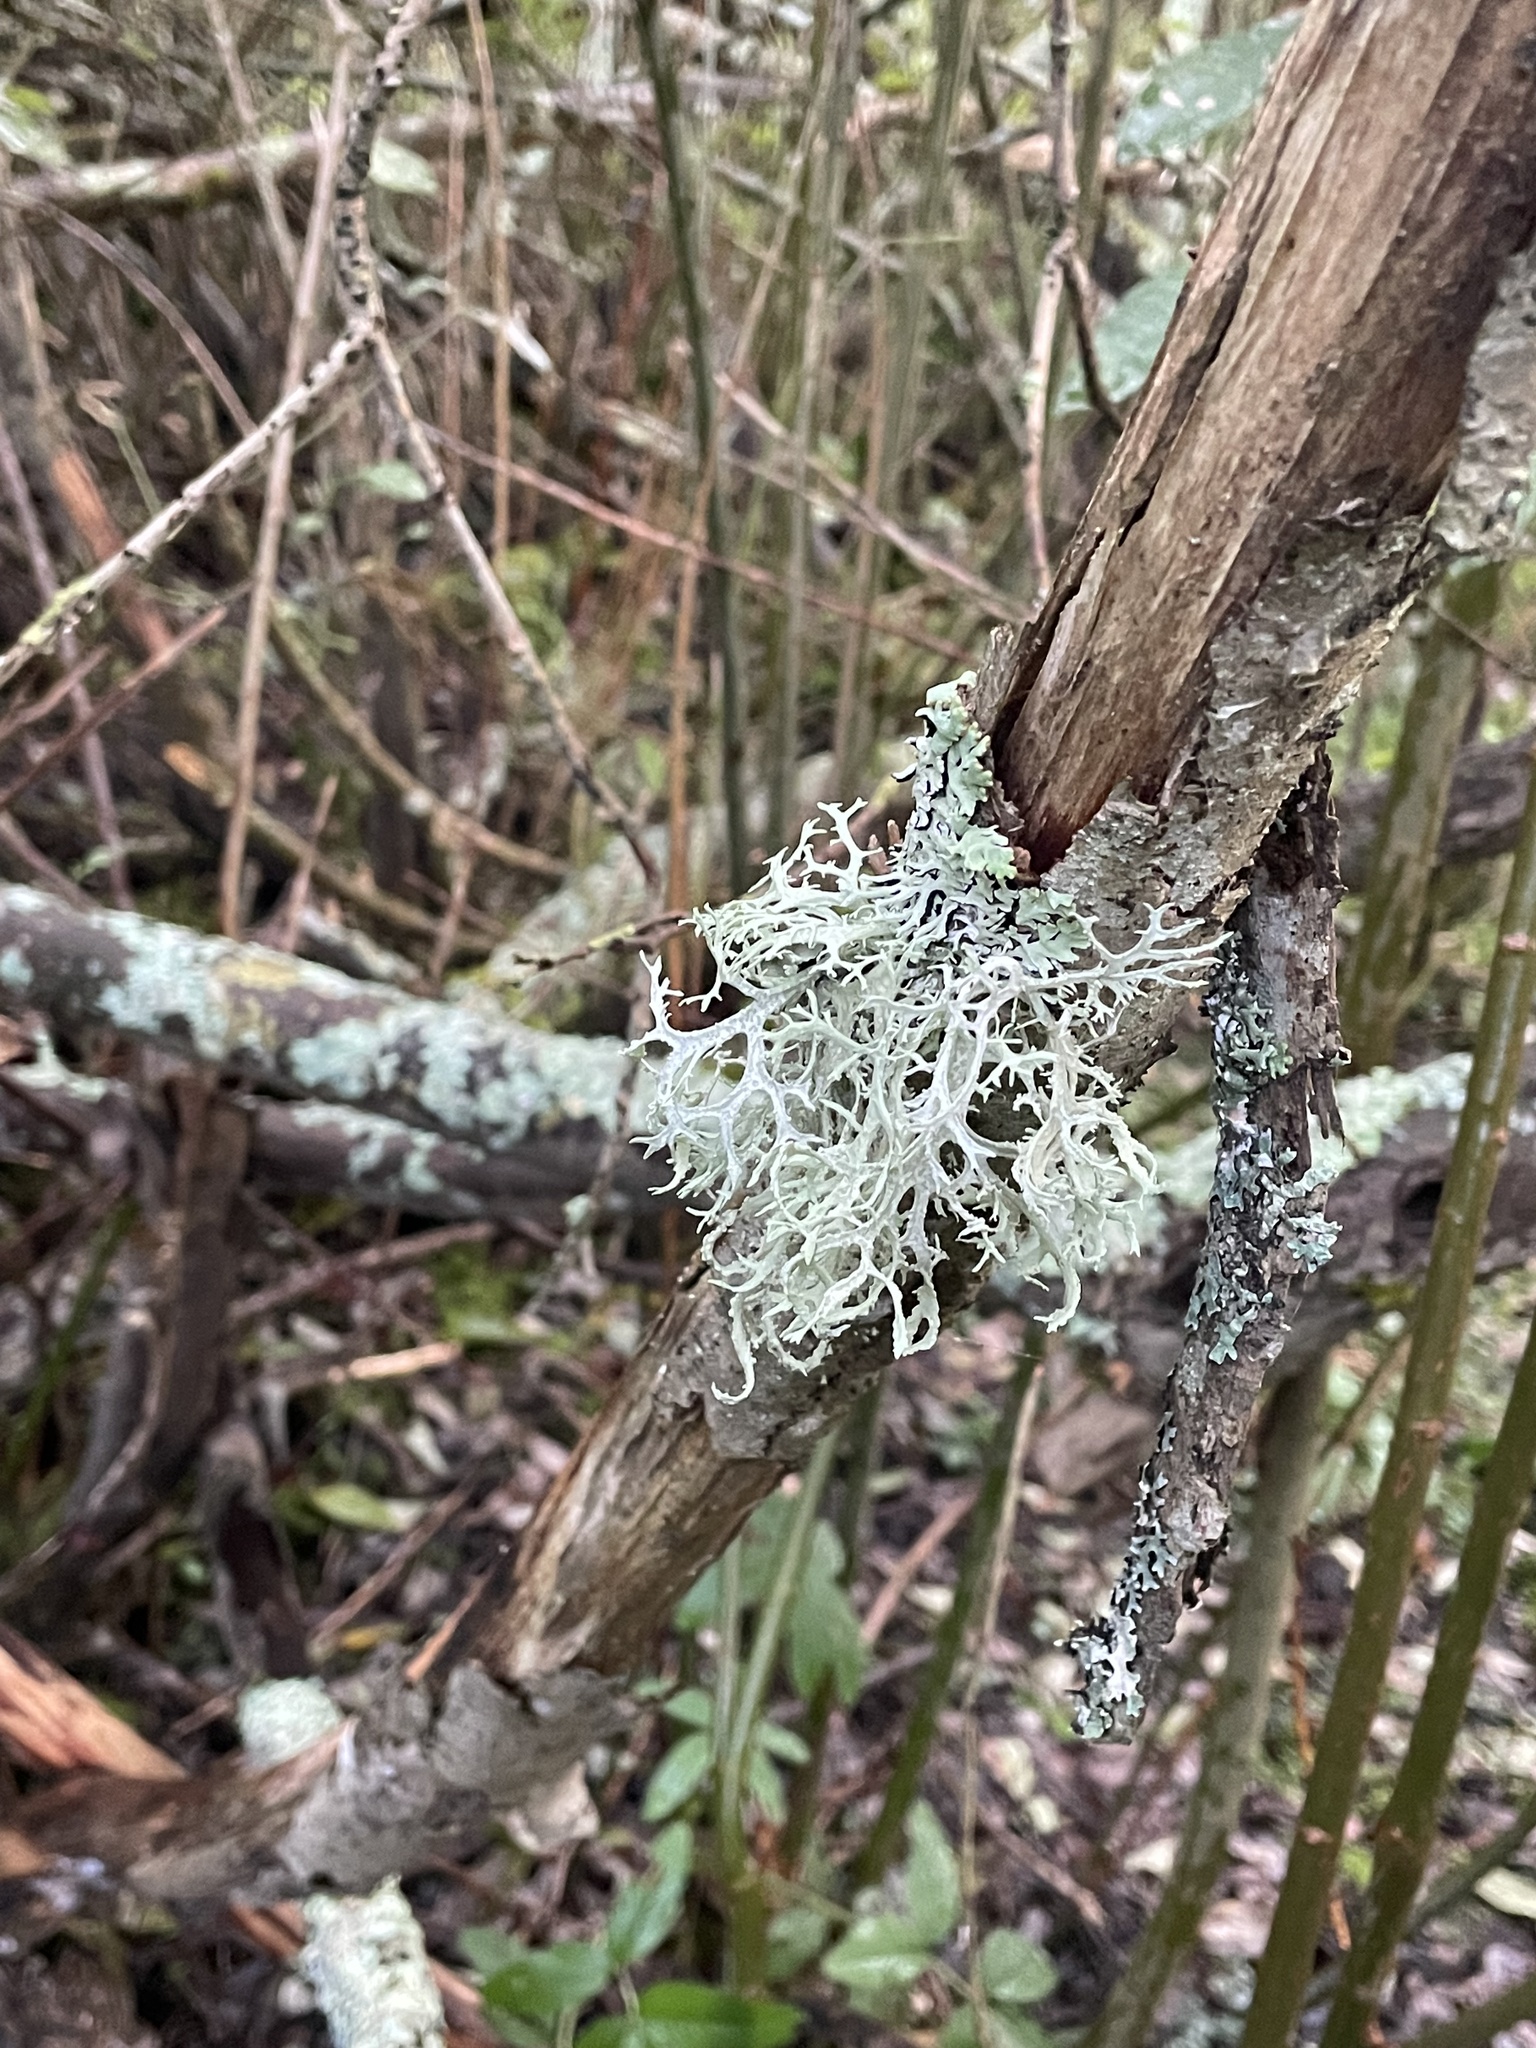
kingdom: Fungi
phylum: Ascomycota
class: Lecanoromycetes
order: Lecanorales
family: Parmeliaceae
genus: Evernia
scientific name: Evernia prunastri
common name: Oak moss
